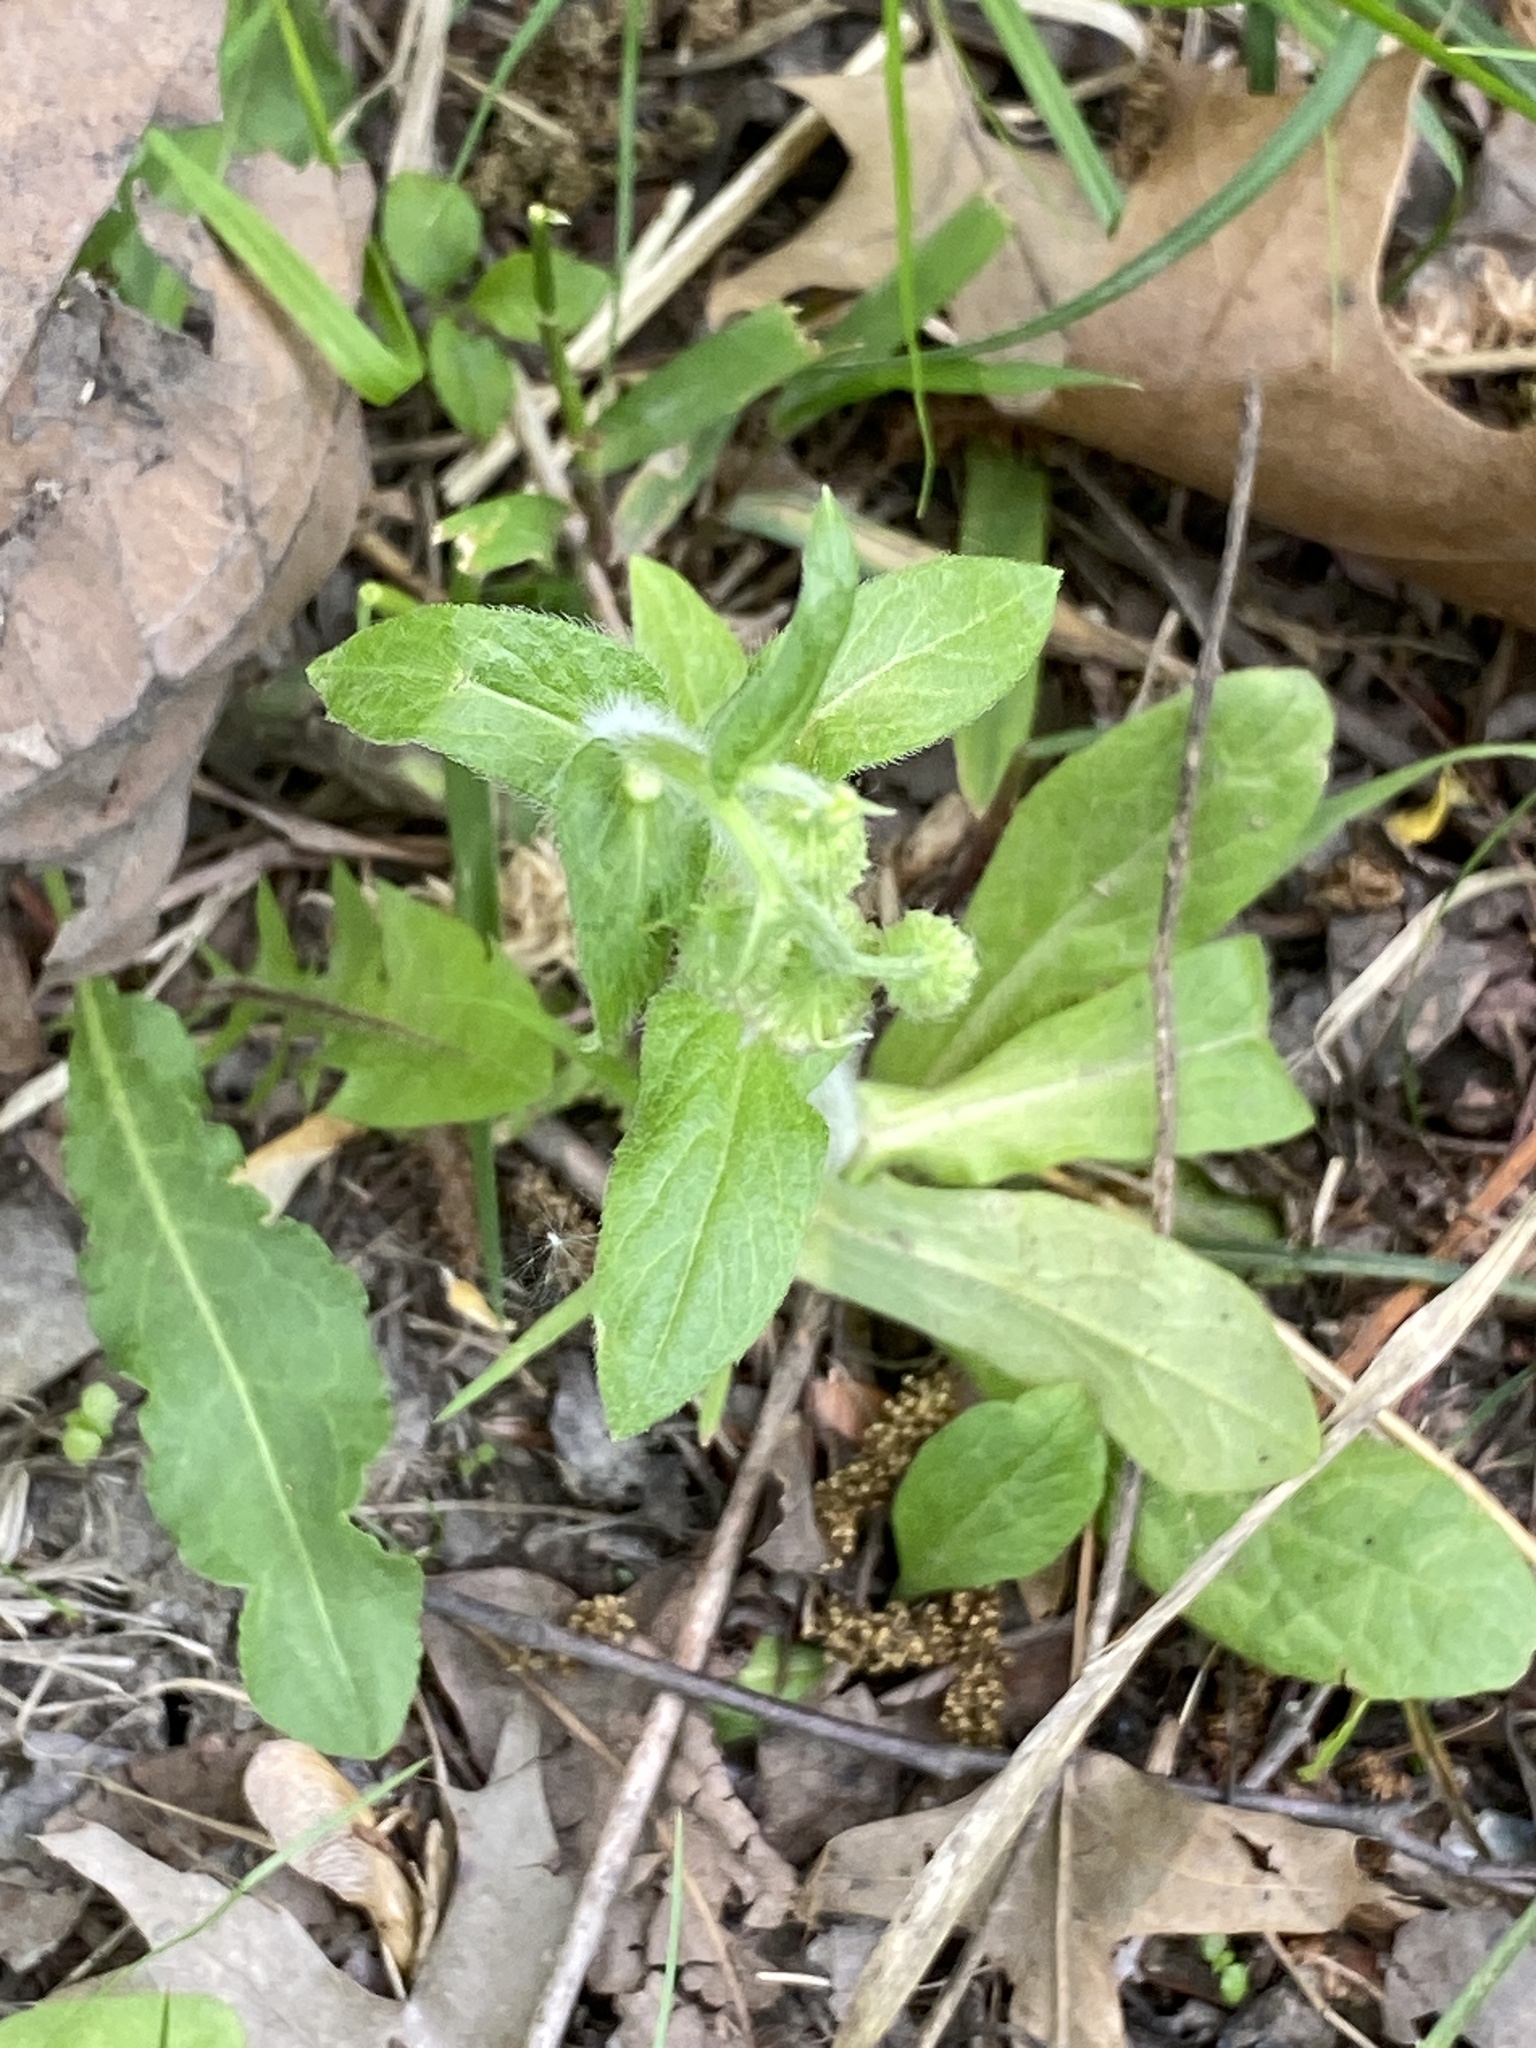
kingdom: Plantae
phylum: Tracheophyta
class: Magnoliopsida
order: Asterales
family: Asteraceae
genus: Erigeron
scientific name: Erigeron philadelphicus
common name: Robin's-plantain
